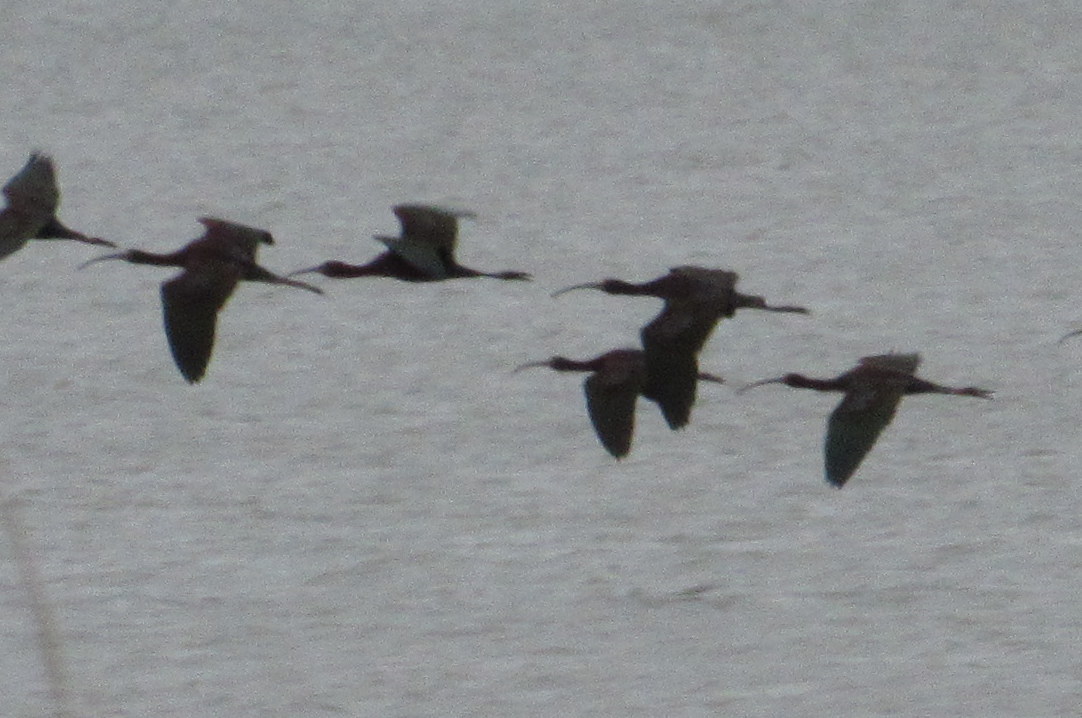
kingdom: Animalia
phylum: Chordata
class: Aves
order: Pelecaniformes
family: Threskiornithidae
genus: Plegadis
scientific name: Plegadis
